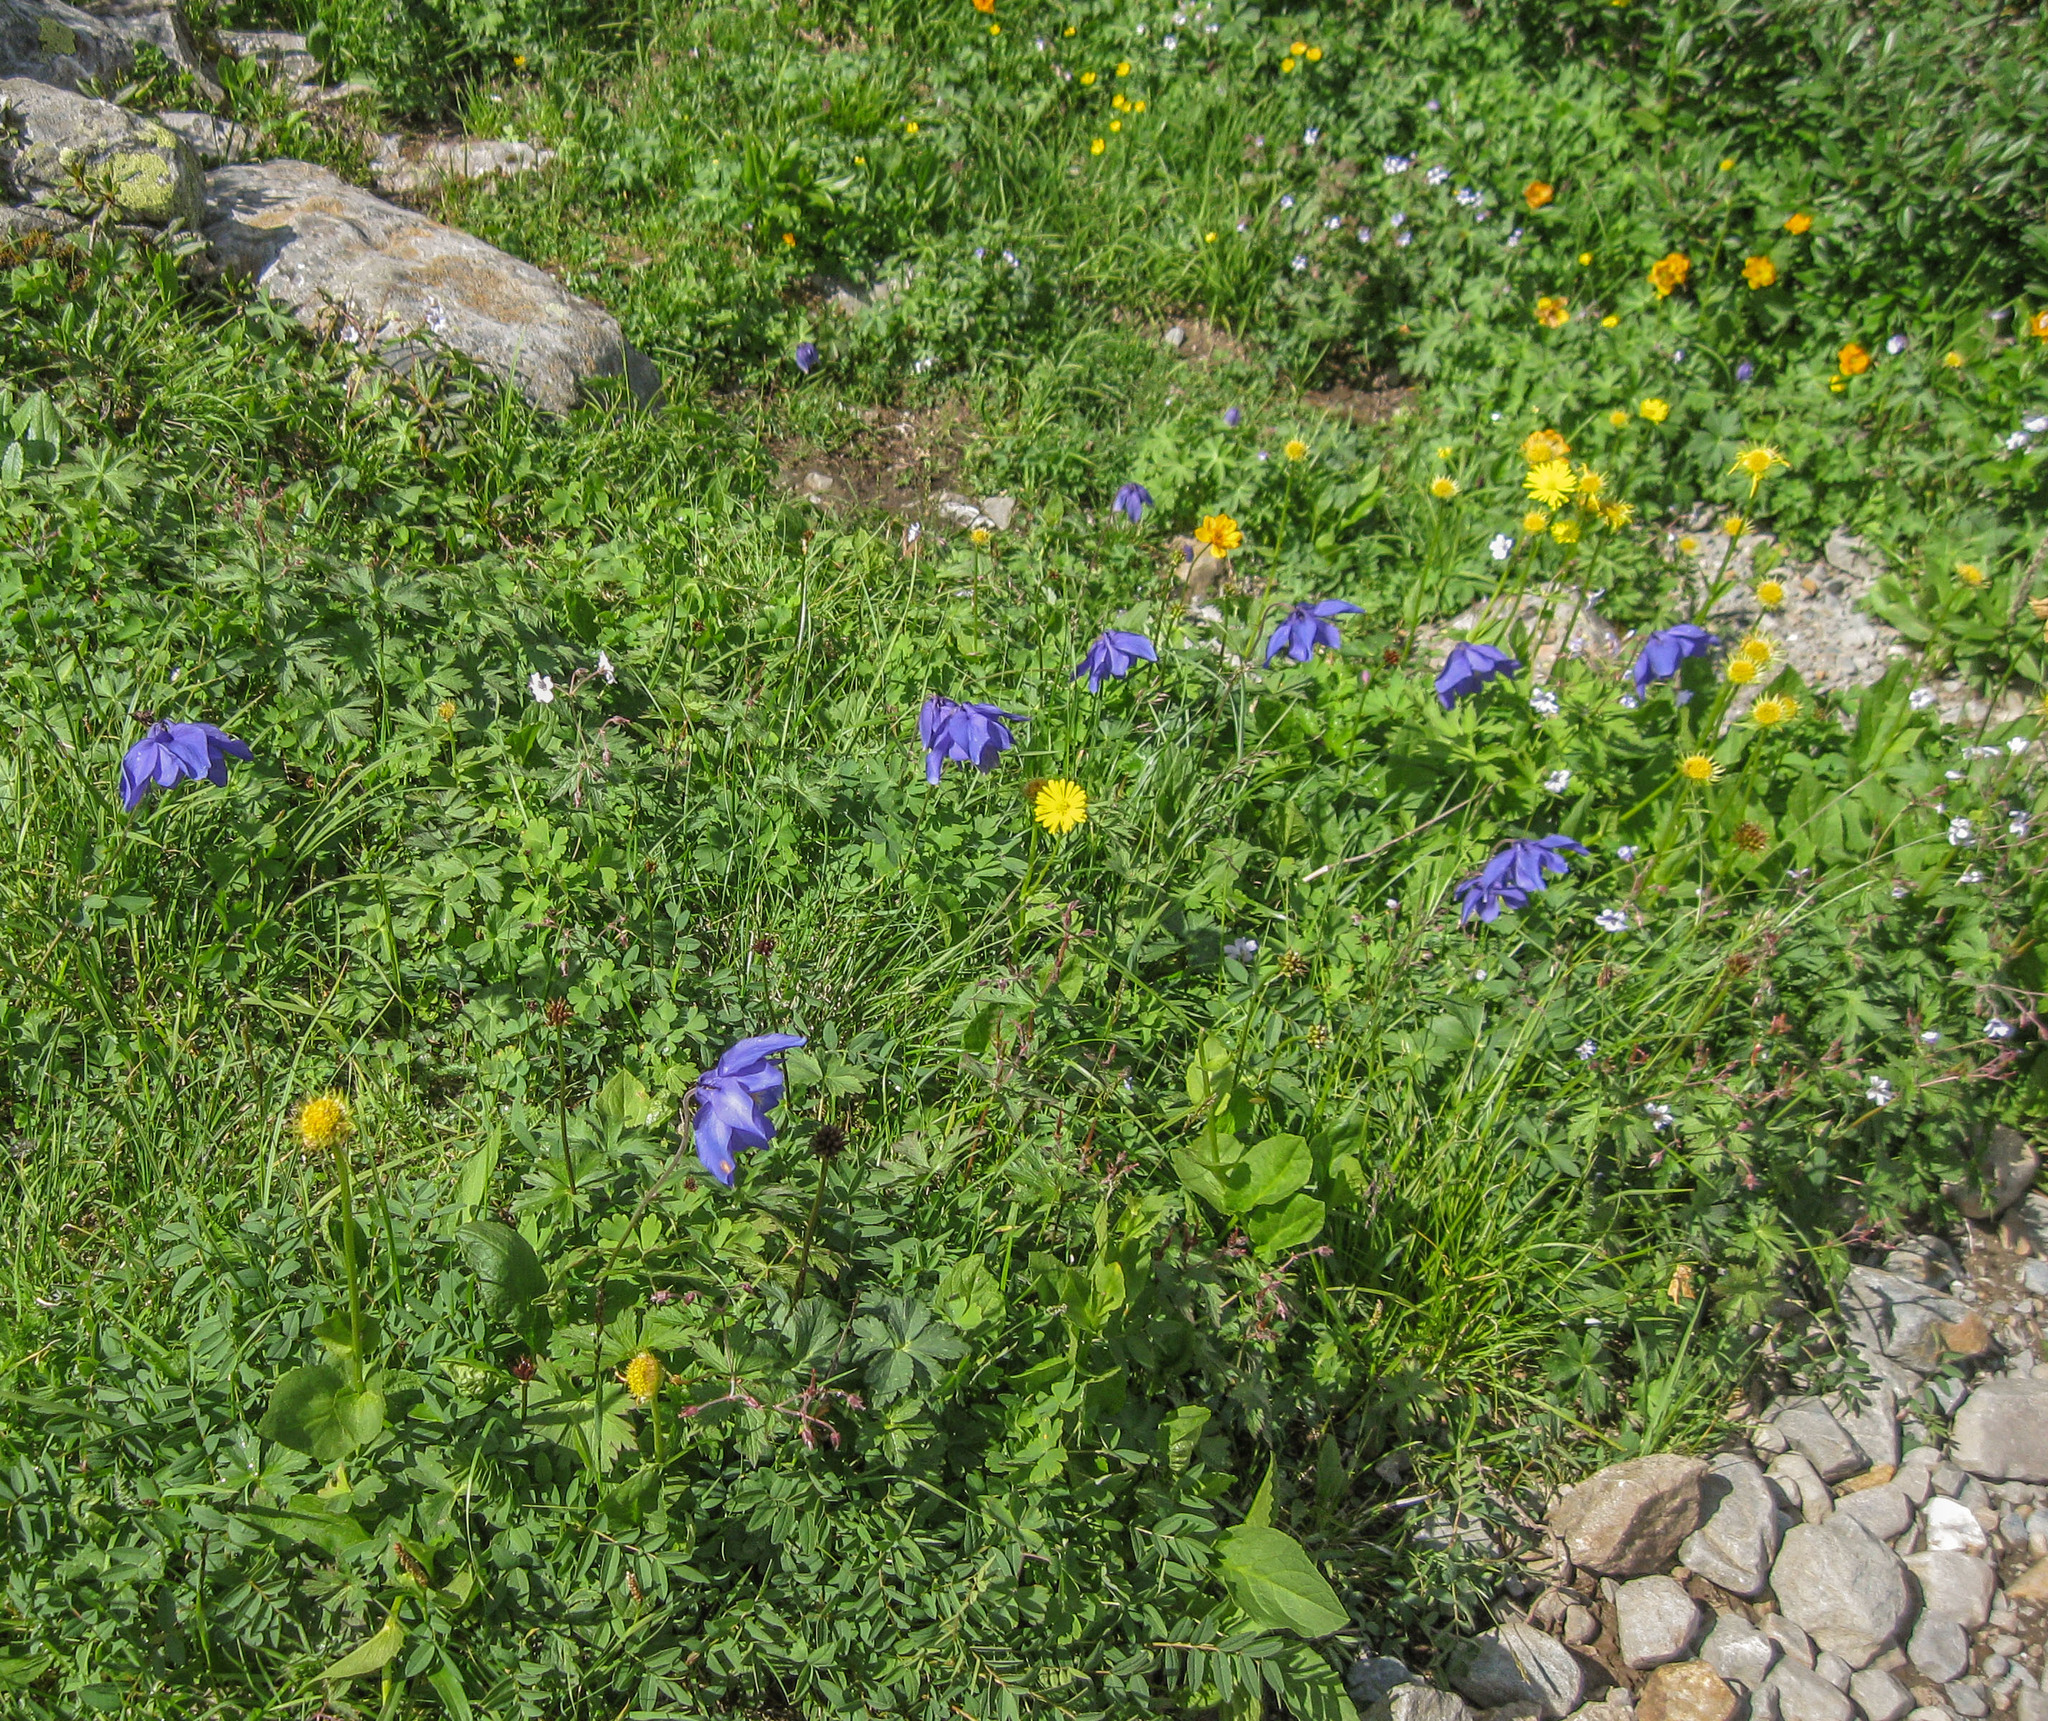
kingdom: Plantae
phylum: Tracheophyta
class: Magnoliopsida
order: Ranunculales
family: Ranunculaceae
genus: Aquilegia
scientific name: Aquilegia glandulosa
